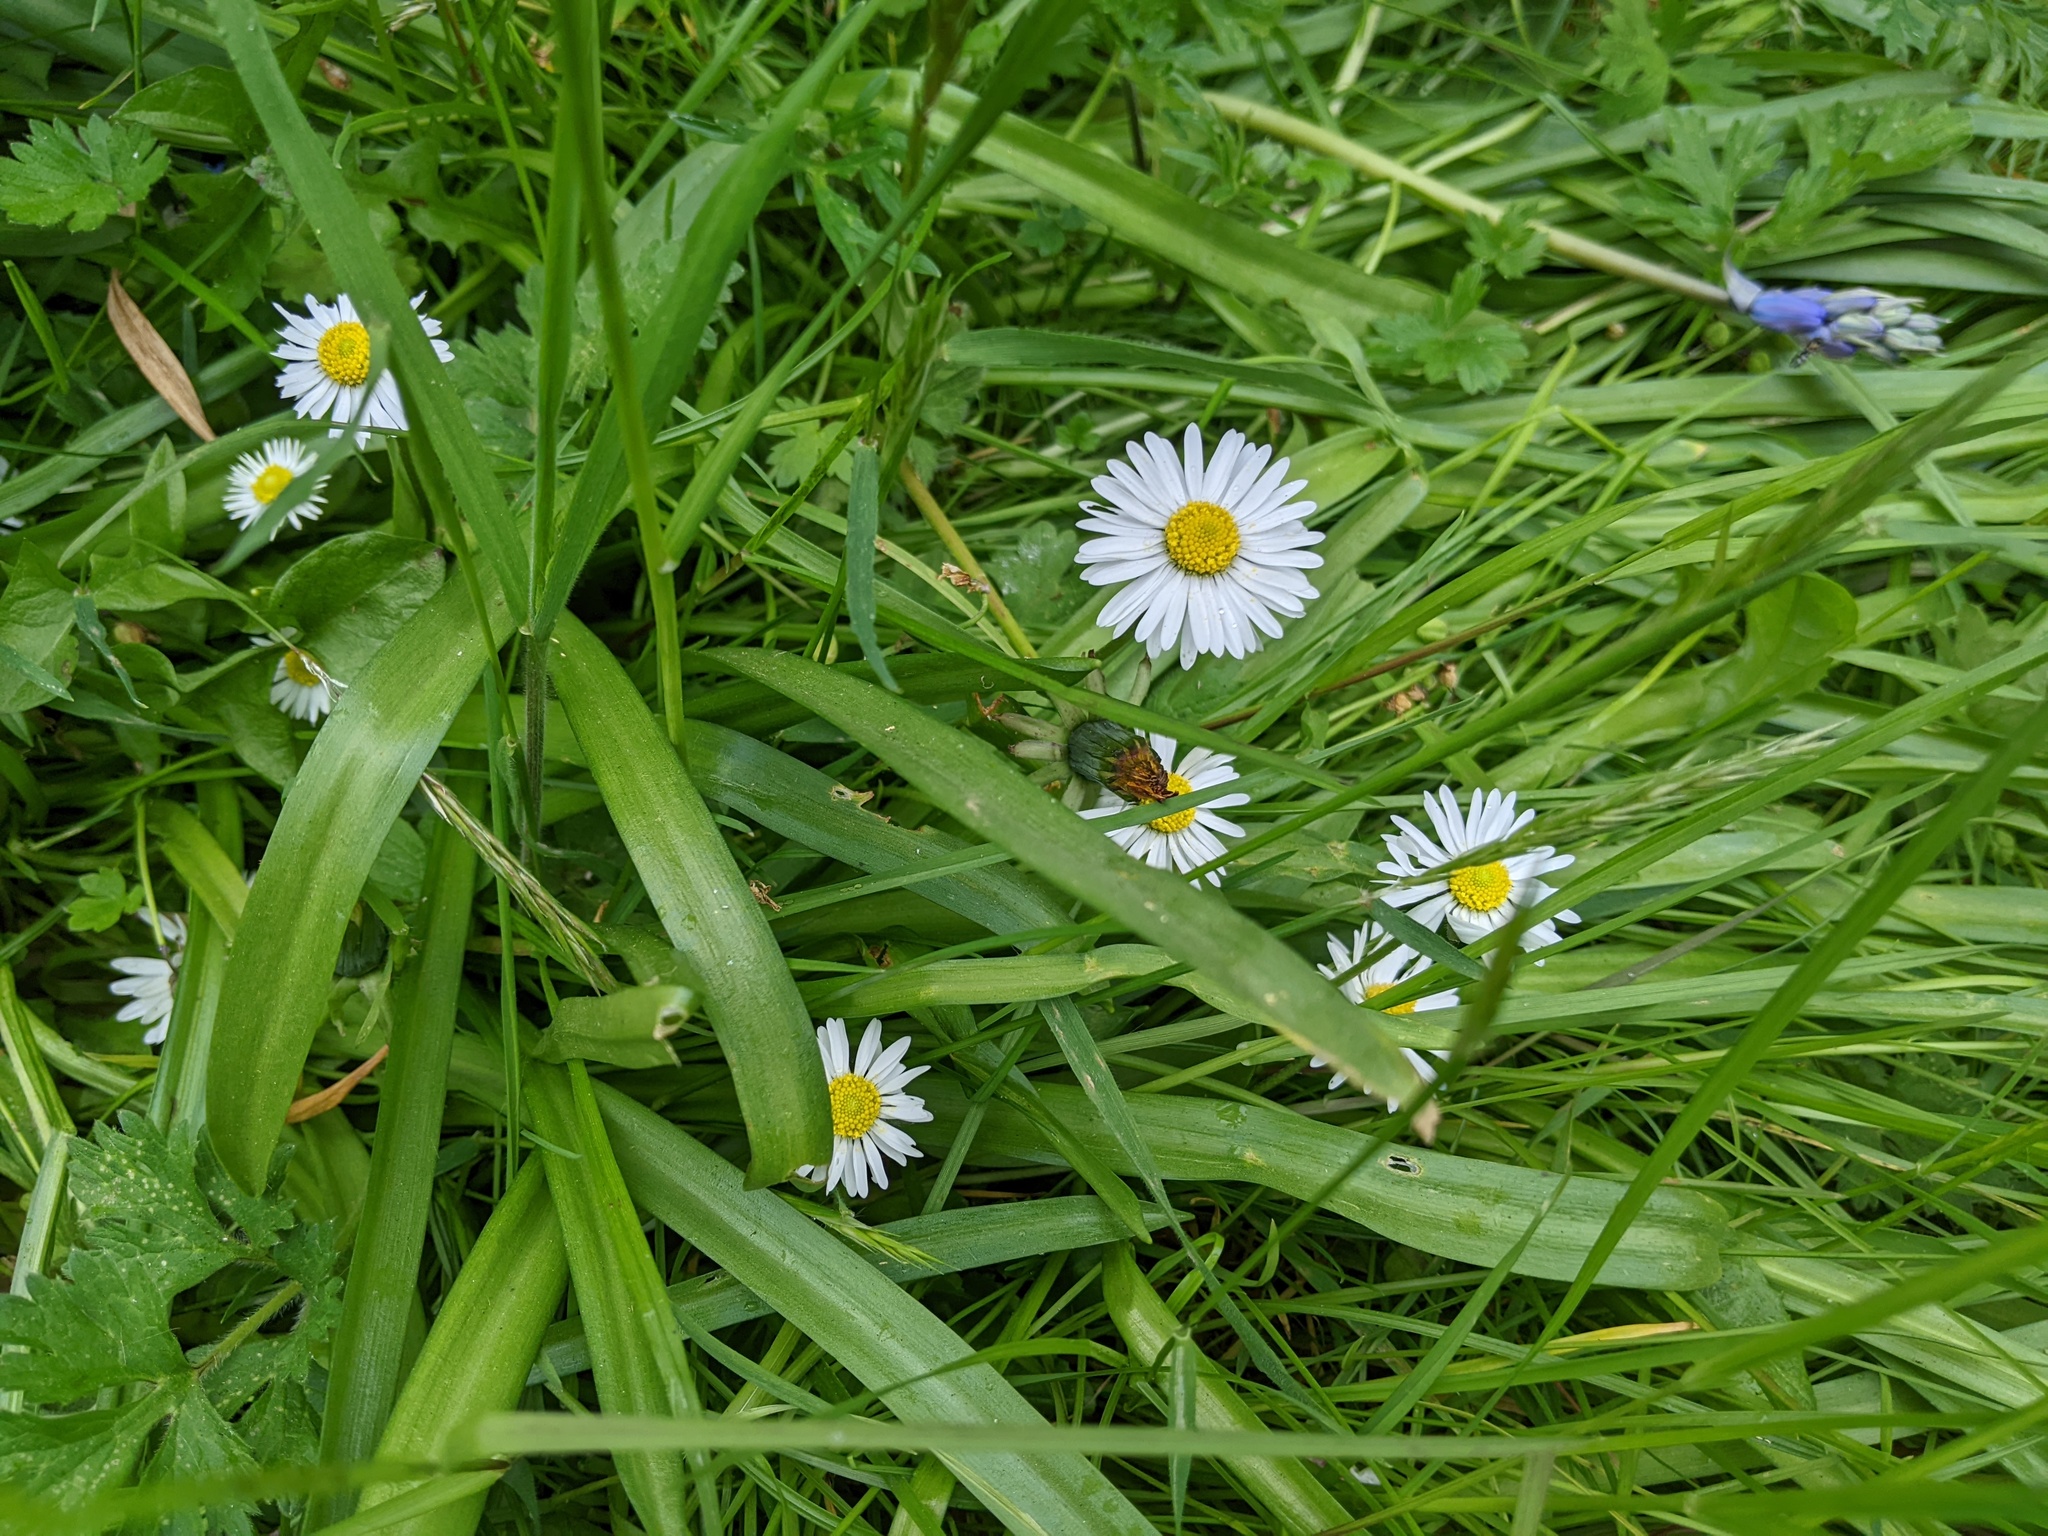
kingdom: Plantae
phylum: Tracheophyta
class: Magnoliopsida
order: Asterales
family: Asteraceae
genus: Bellis
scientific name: Bellis perennis
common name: Lawndaisy
